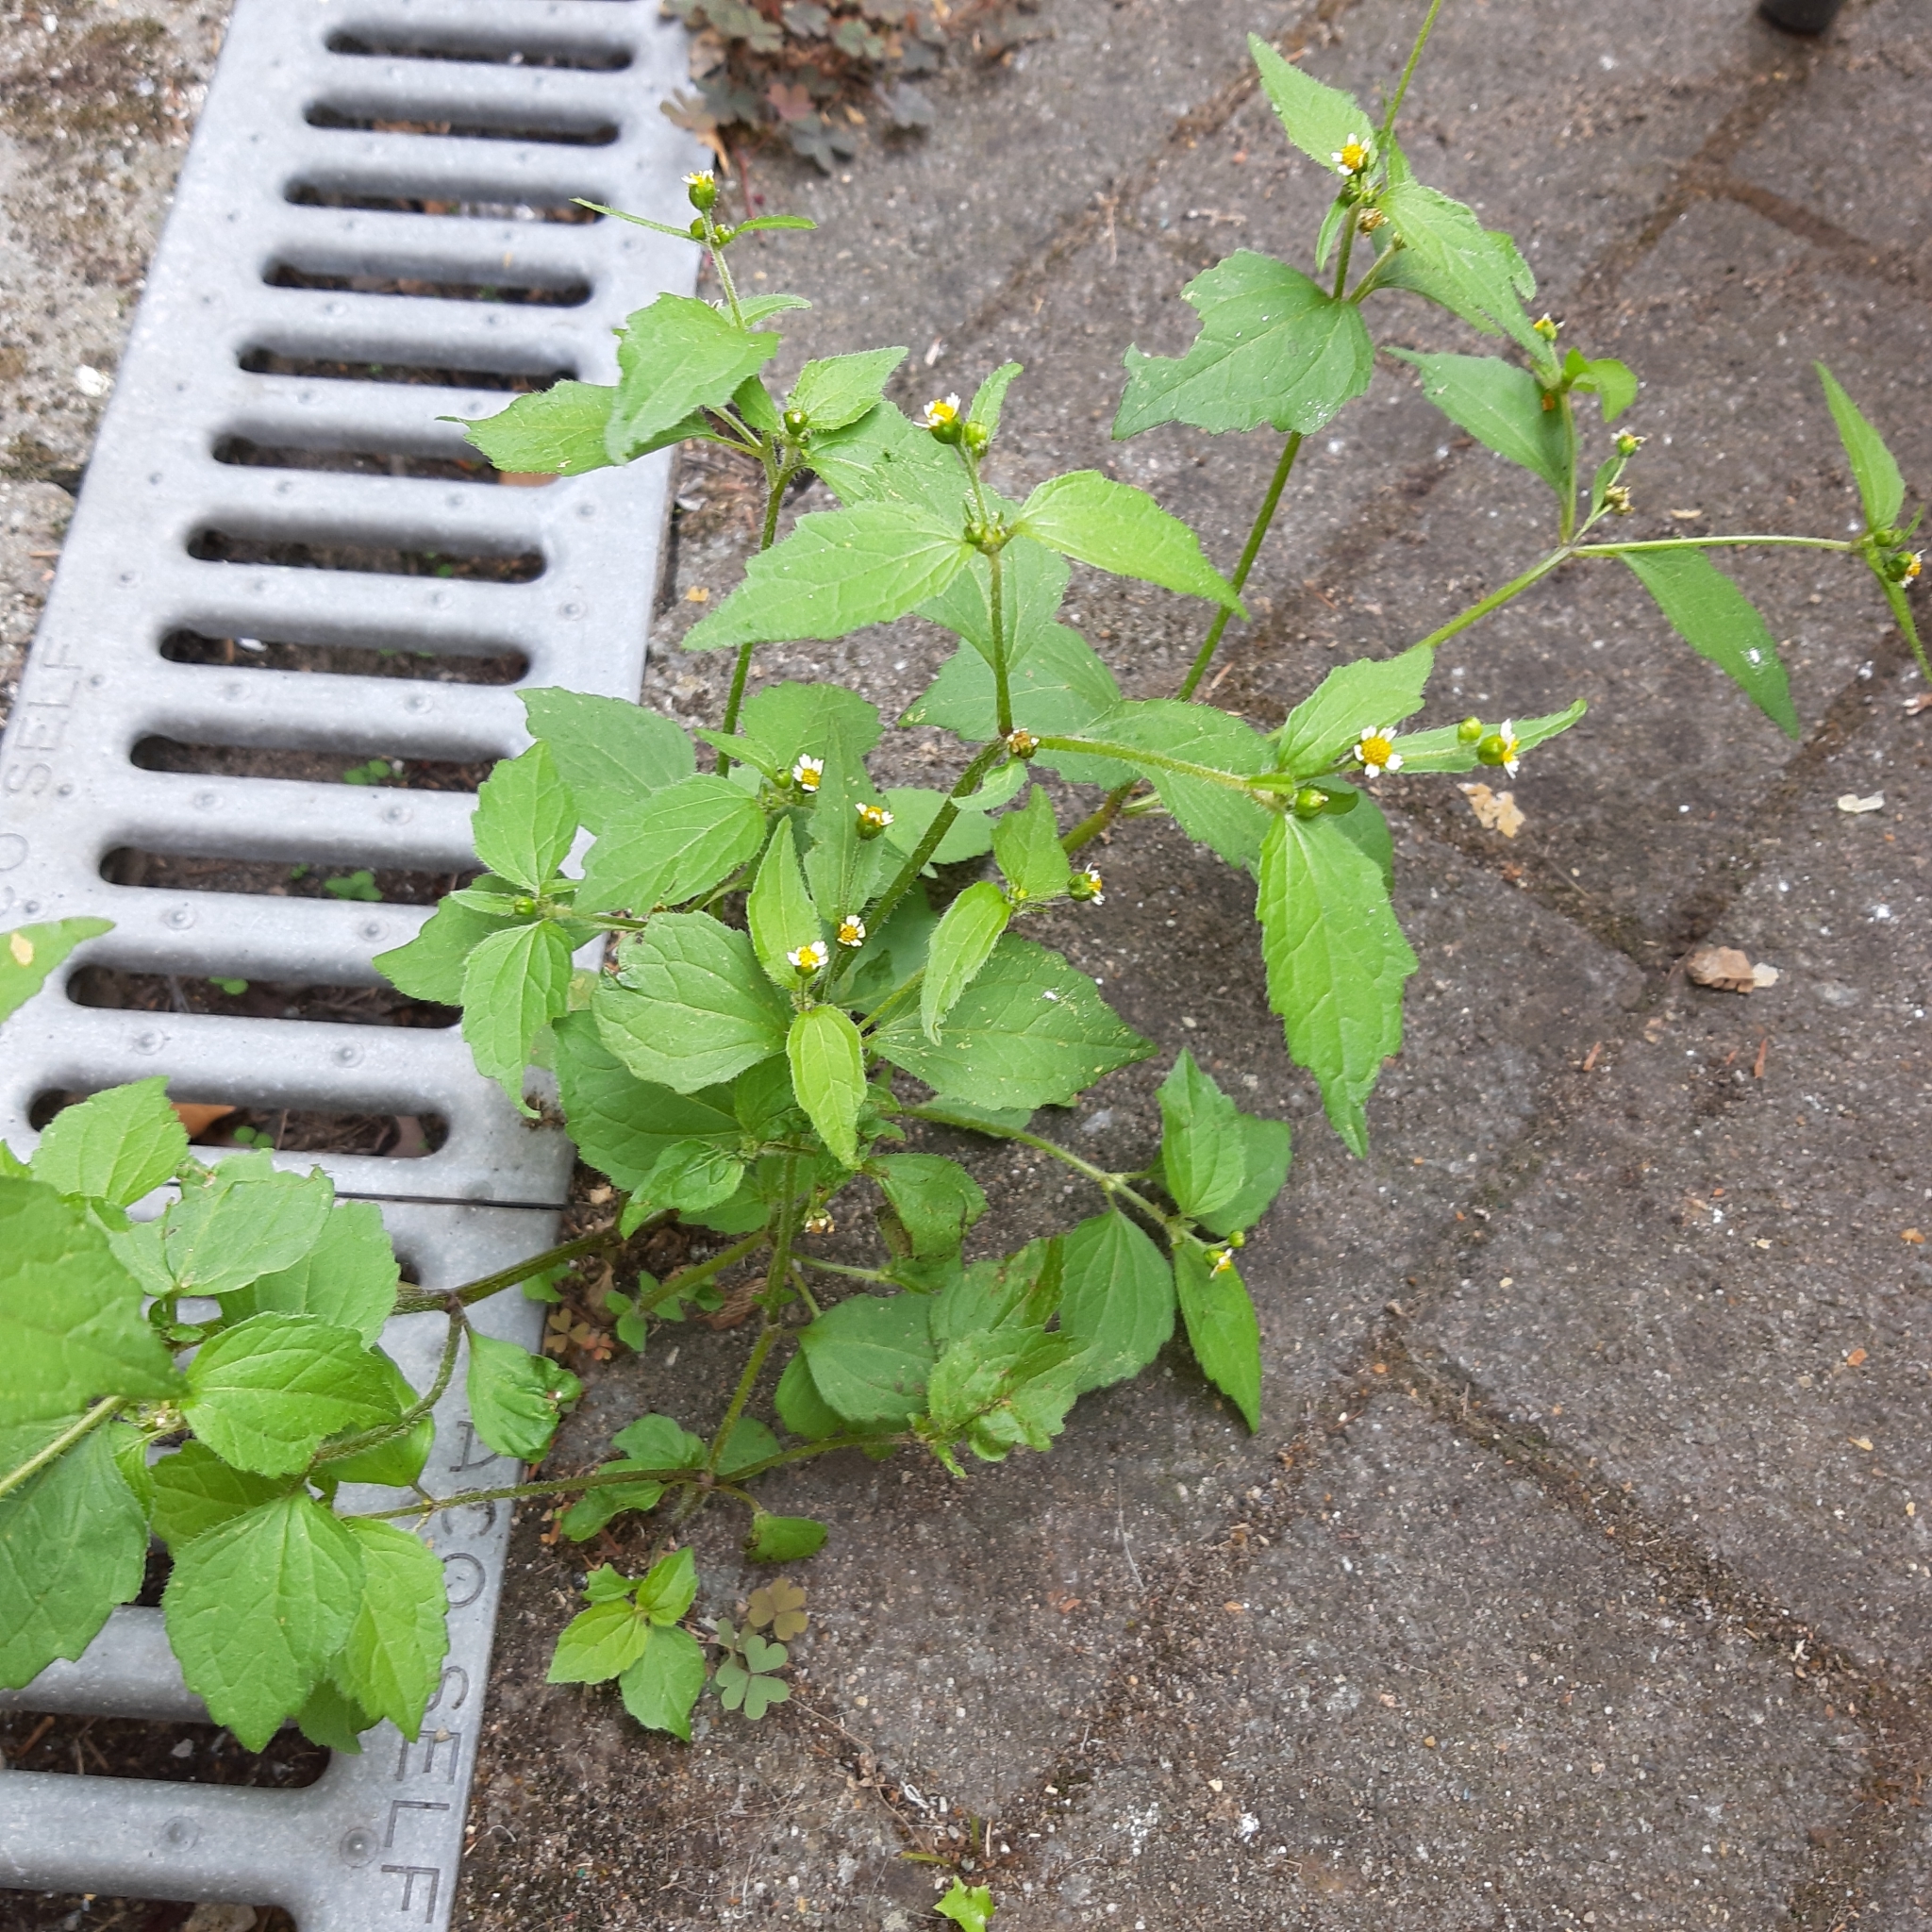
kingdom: Plantae
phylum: Tracheophyta
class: Magnoliopsida
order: Asterales
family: Asteraceae
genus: Galinsoga
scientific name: Galinsoga quadriradiata
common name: Shaggy soldier
